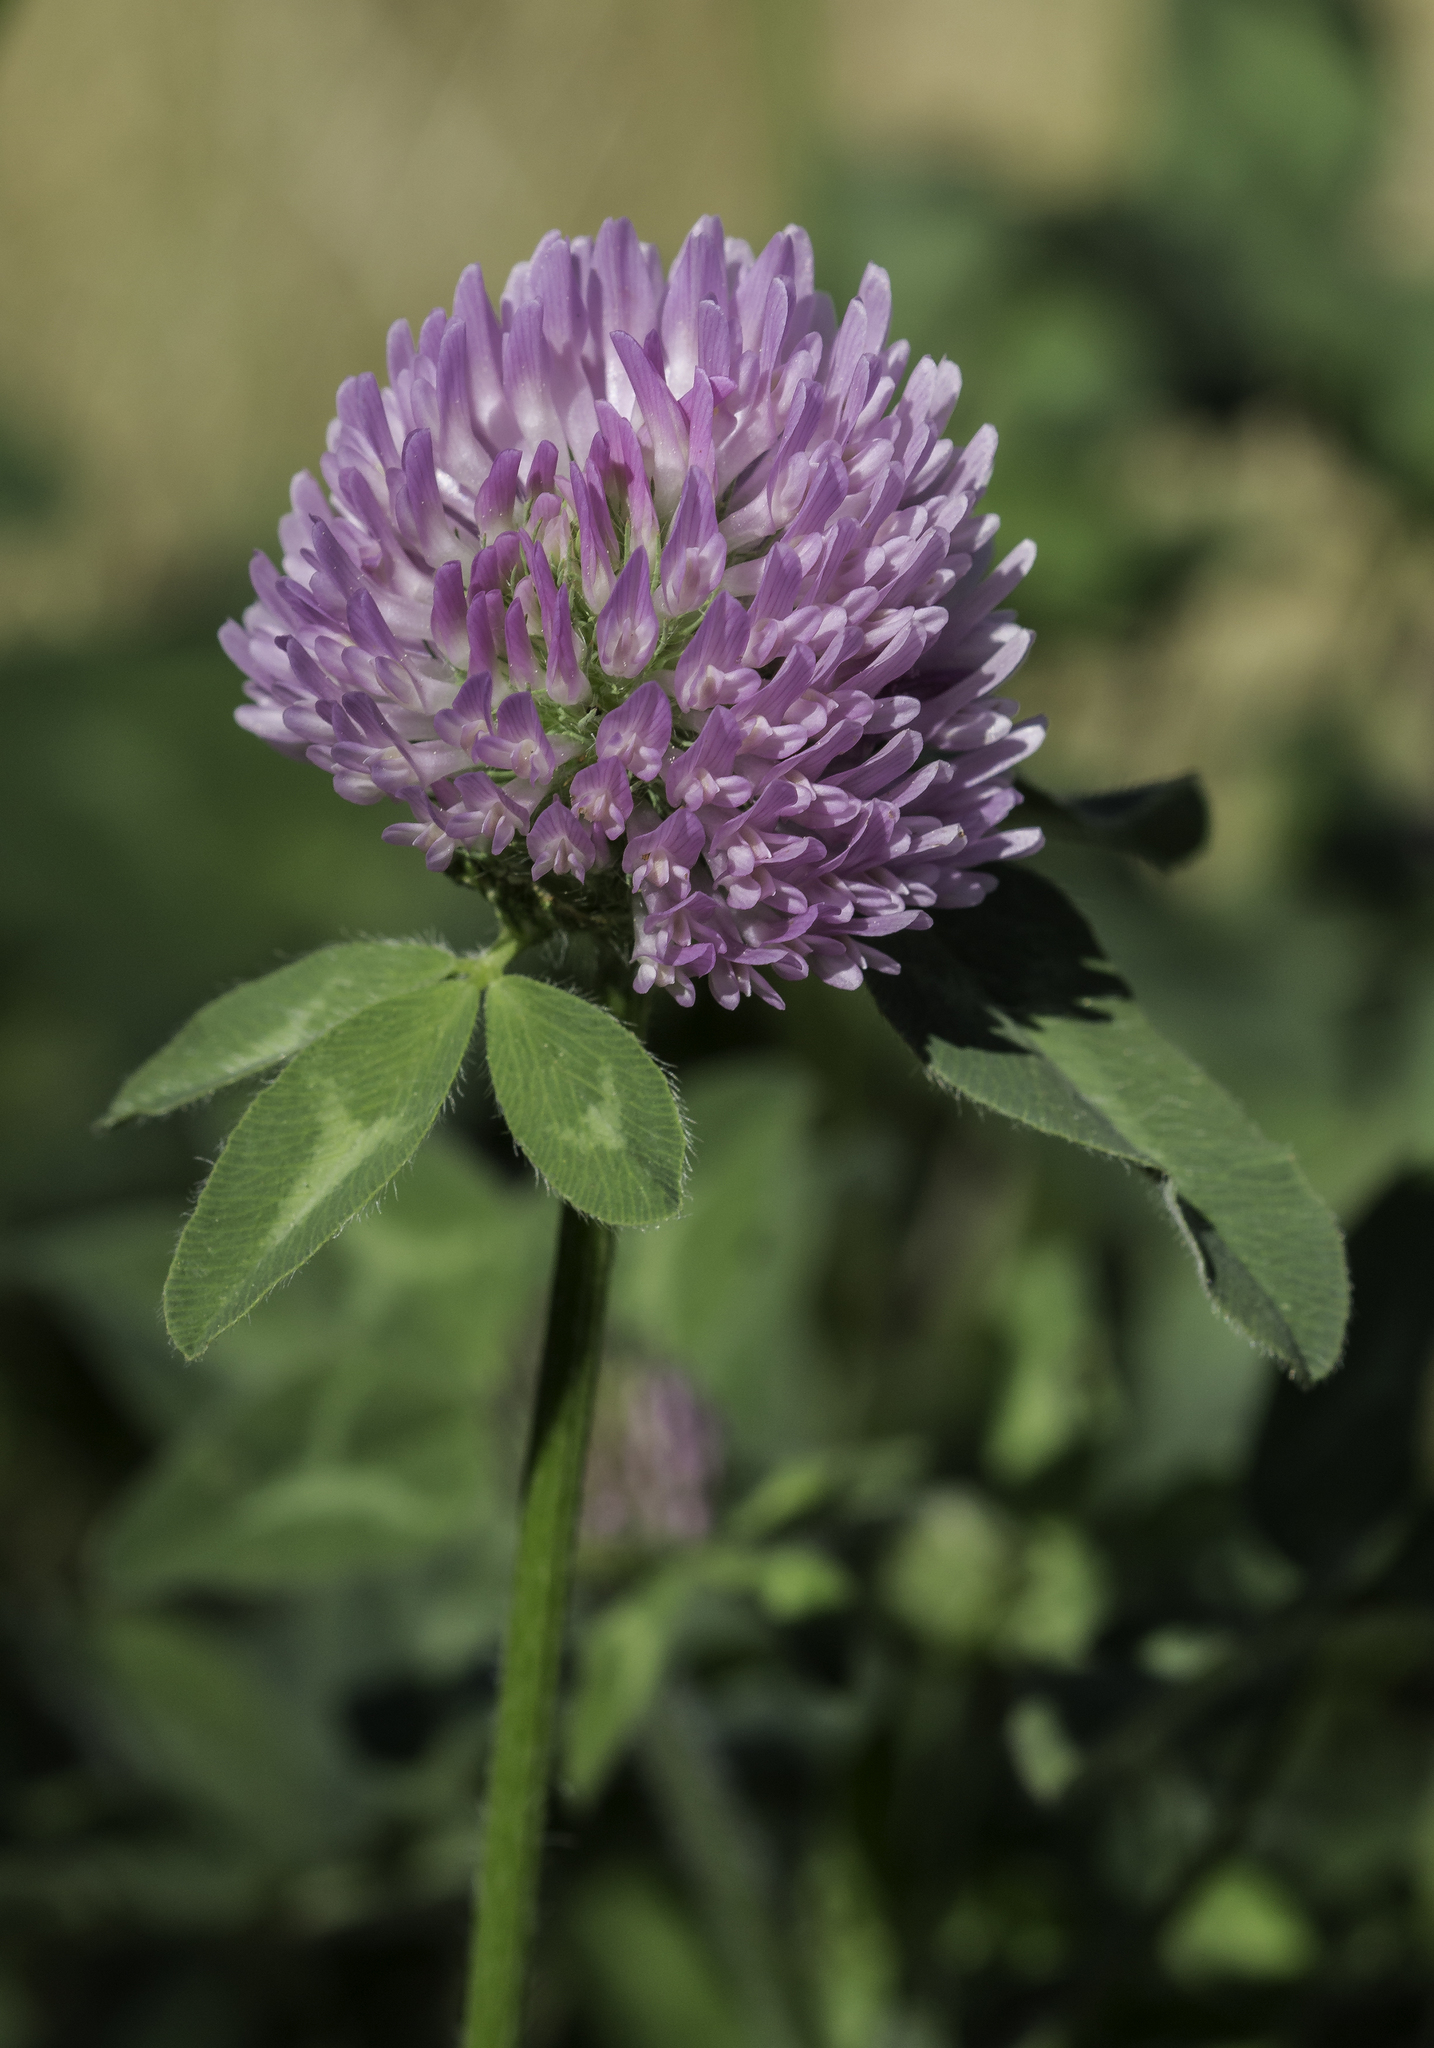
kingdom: Plantae
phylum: Tracheophyta
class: Magnoliopsida
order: Fabales
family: Fabaceae
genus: Trifolium
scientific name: Trifolium pratense
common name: Red clover
